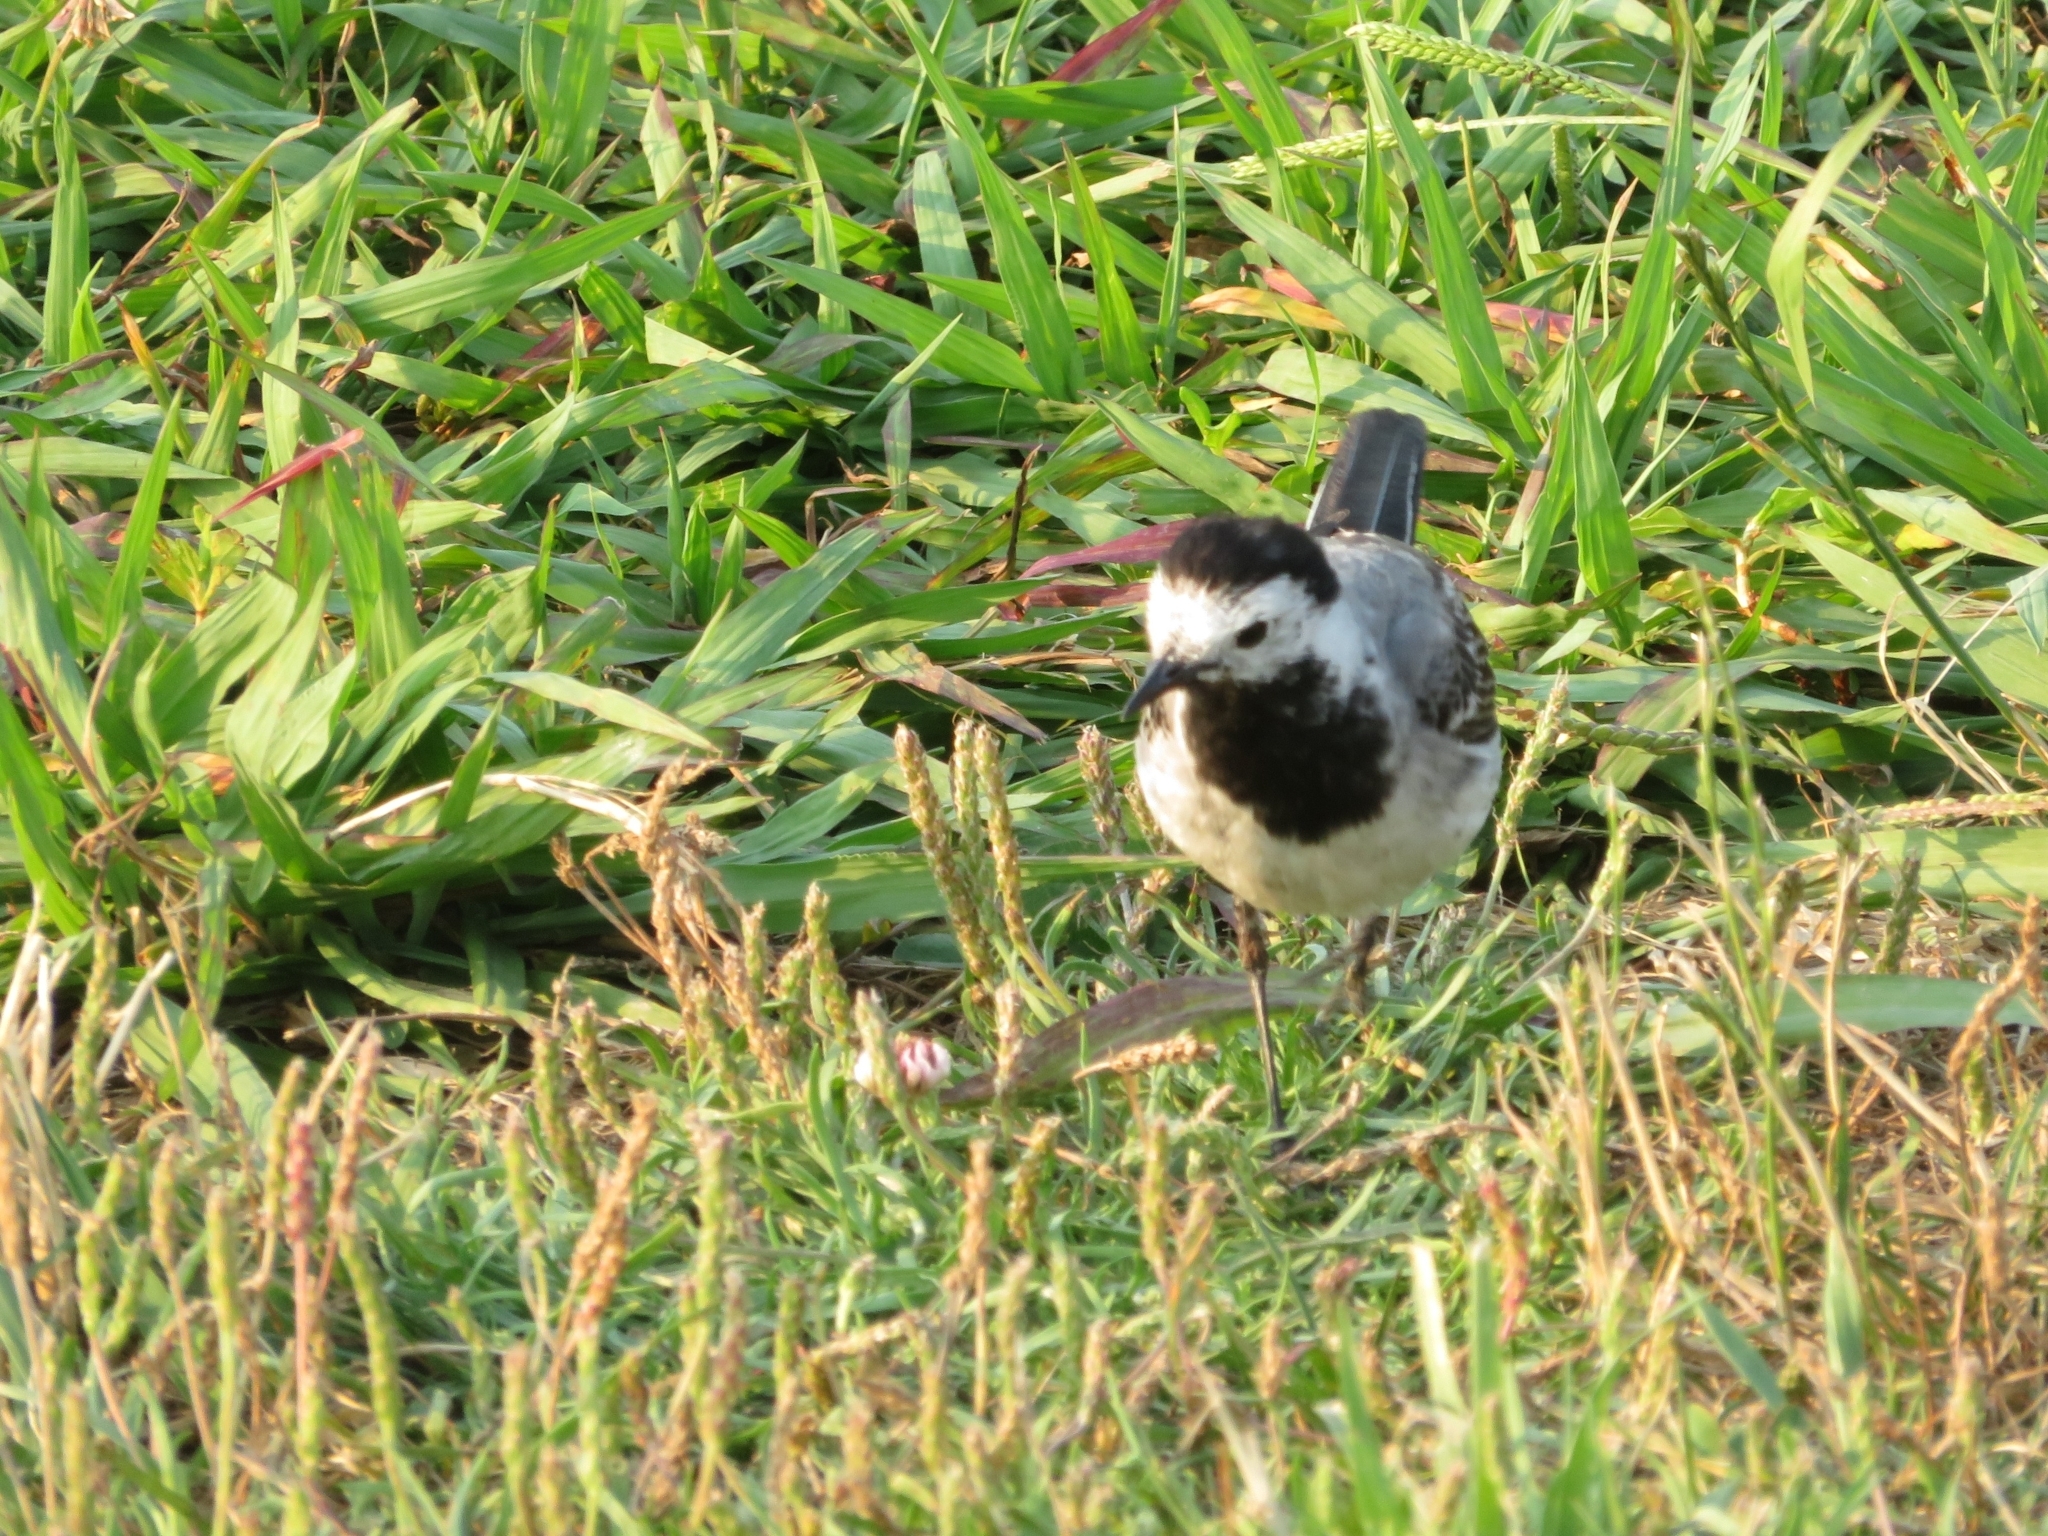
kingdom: Animalia
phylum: Chordata
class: Aves
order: Passeriformes
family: Motacillidae
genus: Motacilla
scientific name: Motacilla alba
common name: White wagtail
